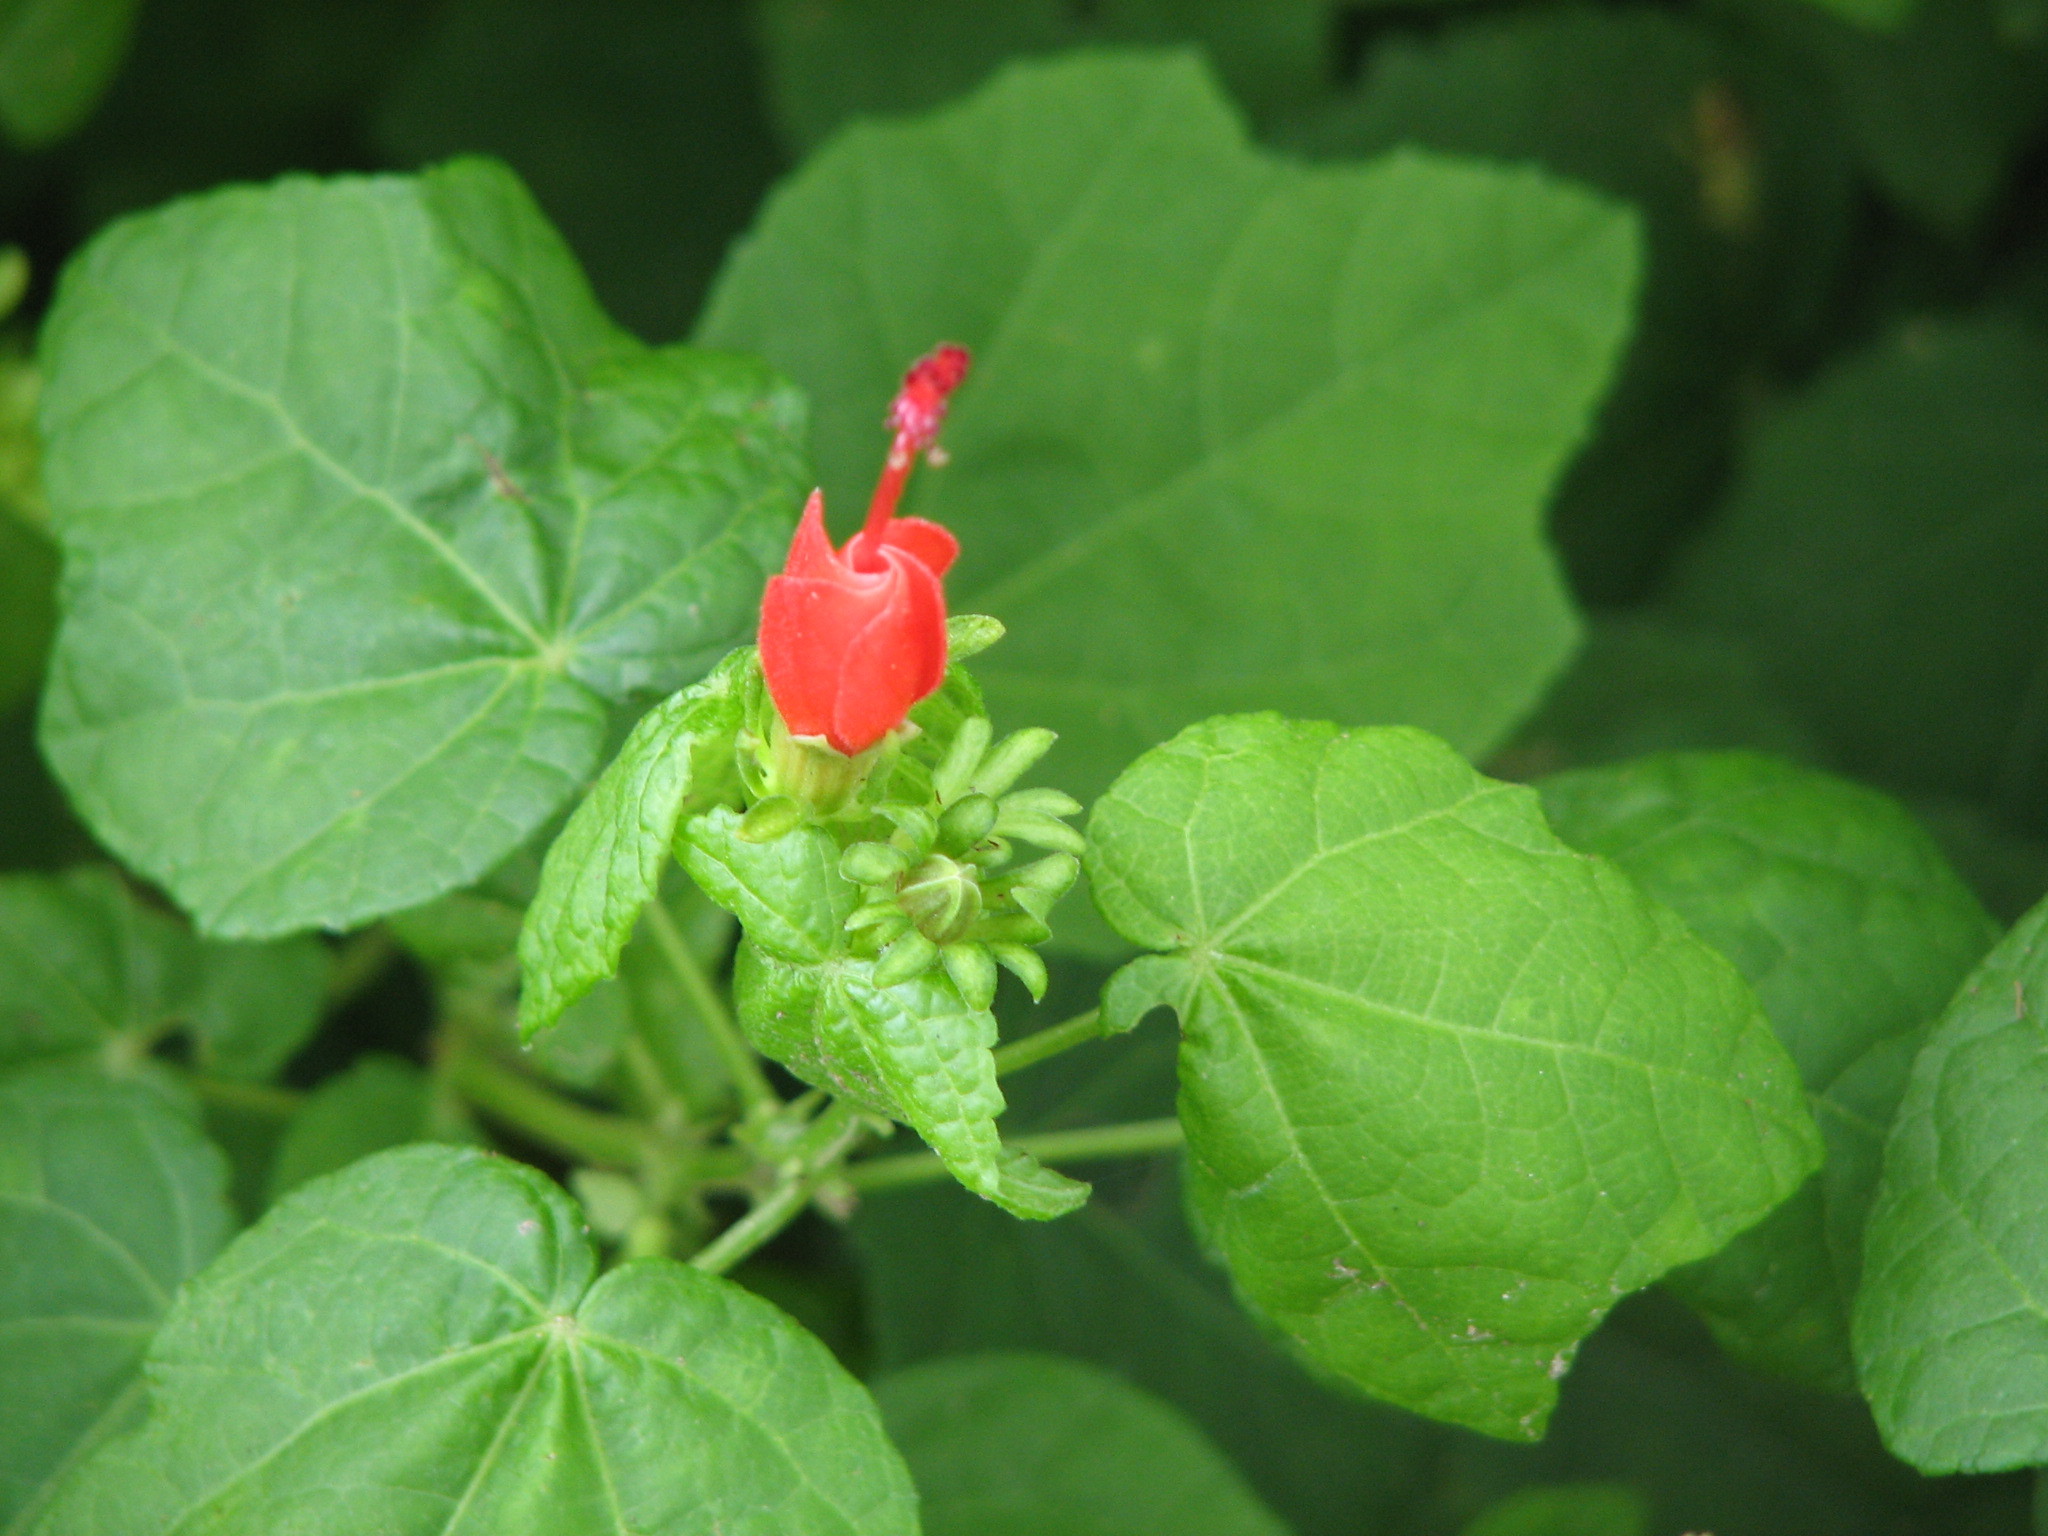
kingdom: Plantae
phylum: Tracheophyta
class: Magnoliopsida
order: Malvales
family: Malvaceae
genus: Malvaviscus
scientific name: Malvaviscus arboreus
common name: Wax mallow
